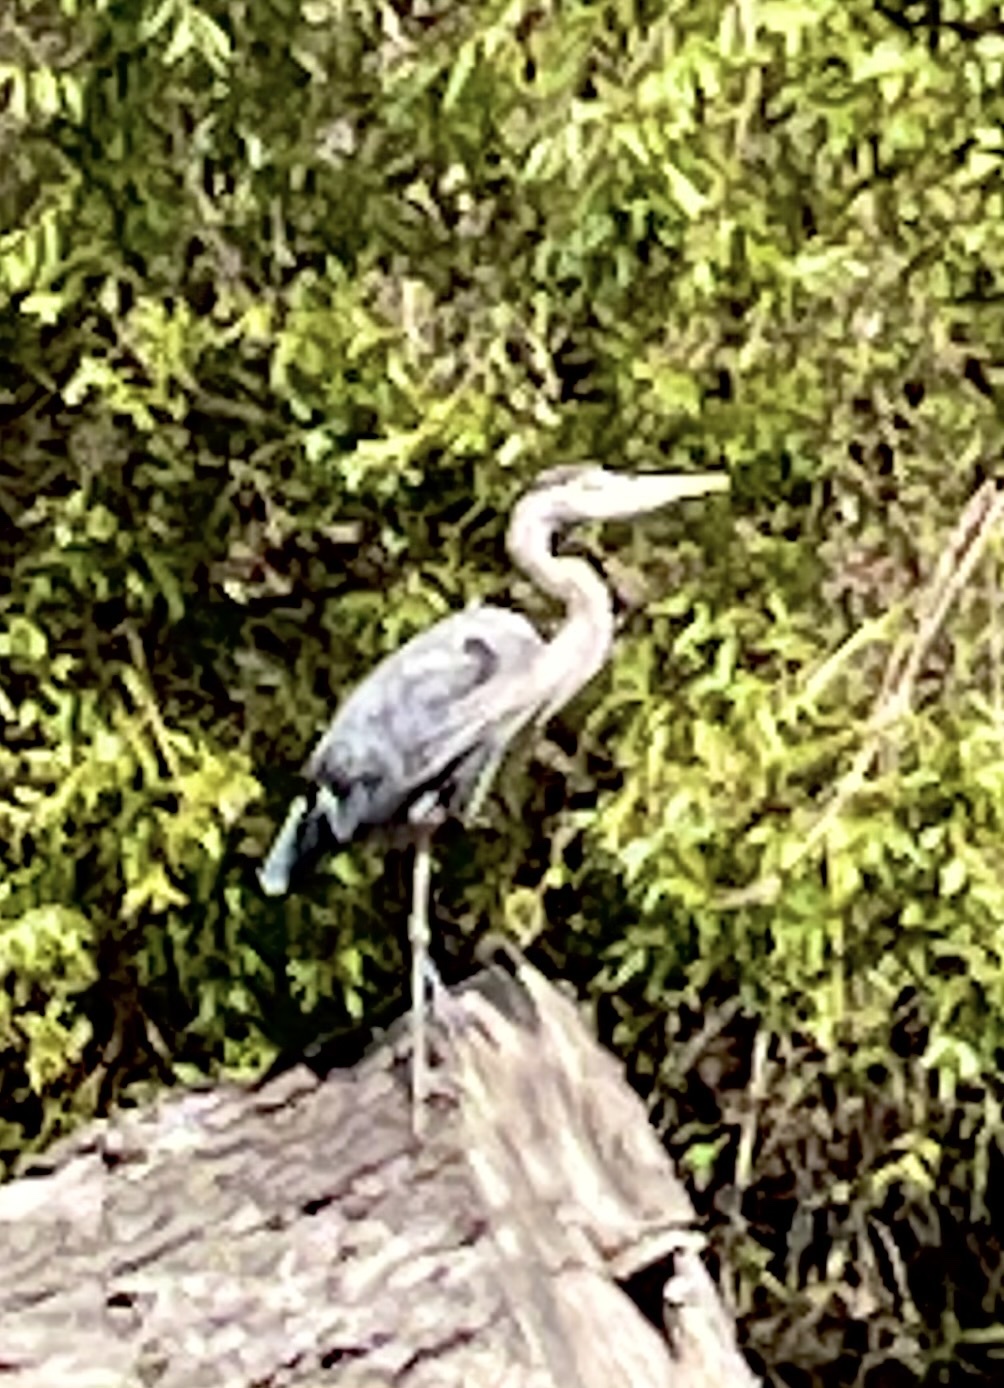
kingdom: Animalia
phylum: Chordata
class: Aves
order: Pelecaniformes
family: Ardeidae
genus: Ardea
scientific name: Ardea herodias
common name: Great blue heron
